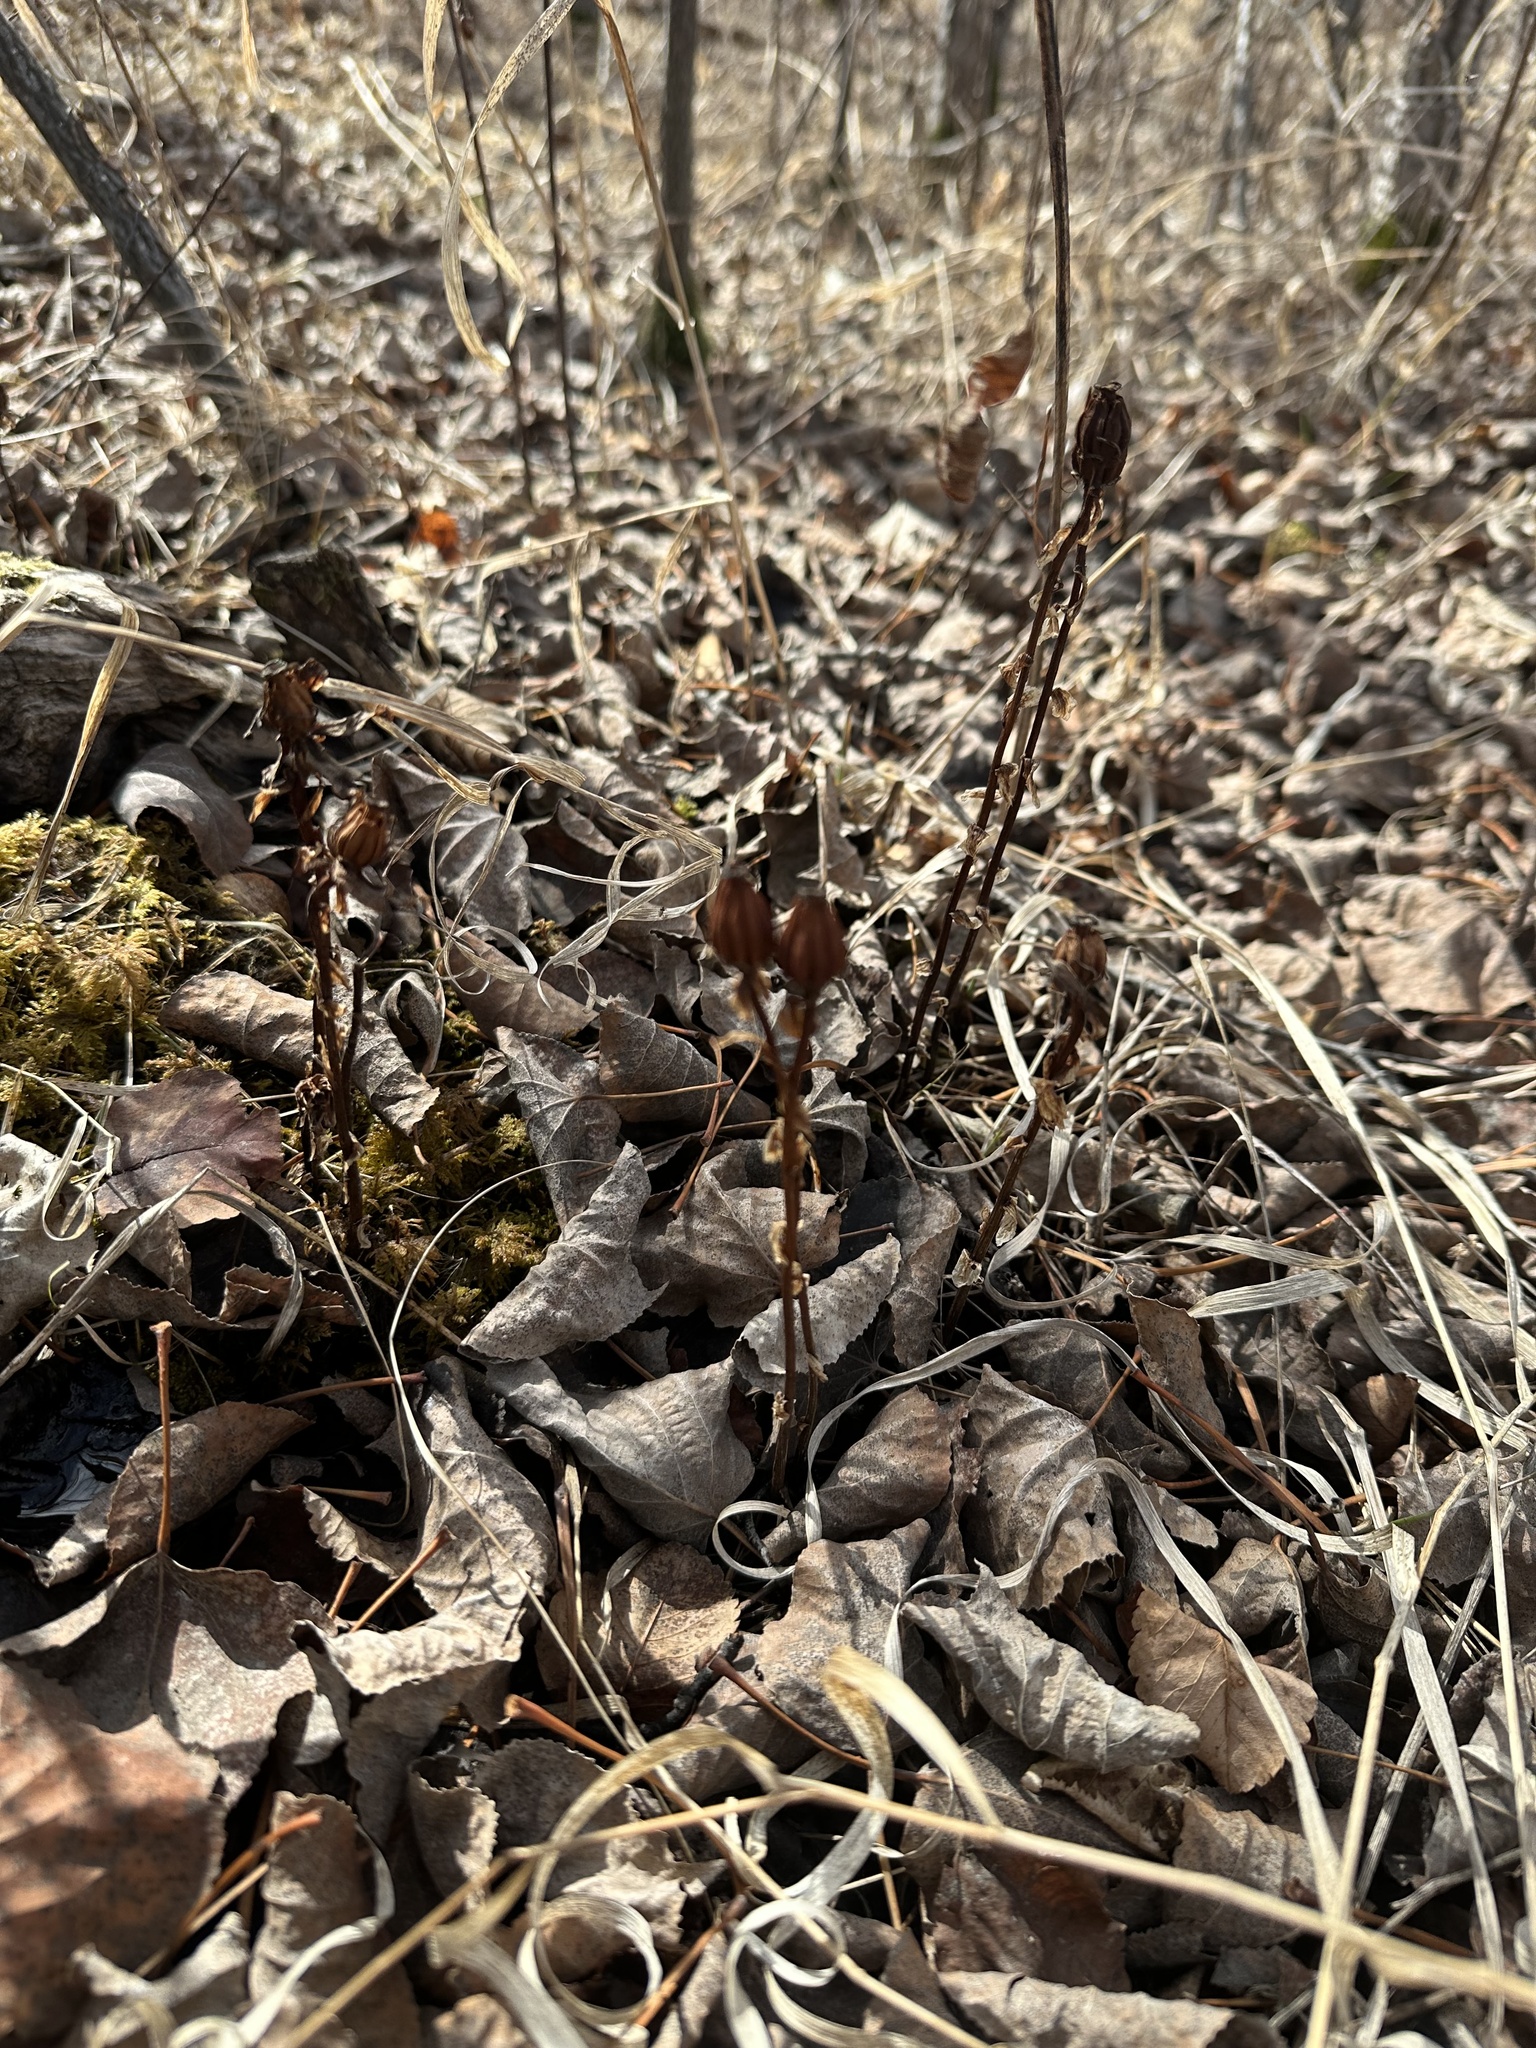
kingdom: Plantae
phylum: Tracheophyta
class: Magnoliopsida
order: Ericales
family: Ericaceae
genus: Monotropa
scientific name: Monotropa uniflora
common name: Convulsion root
